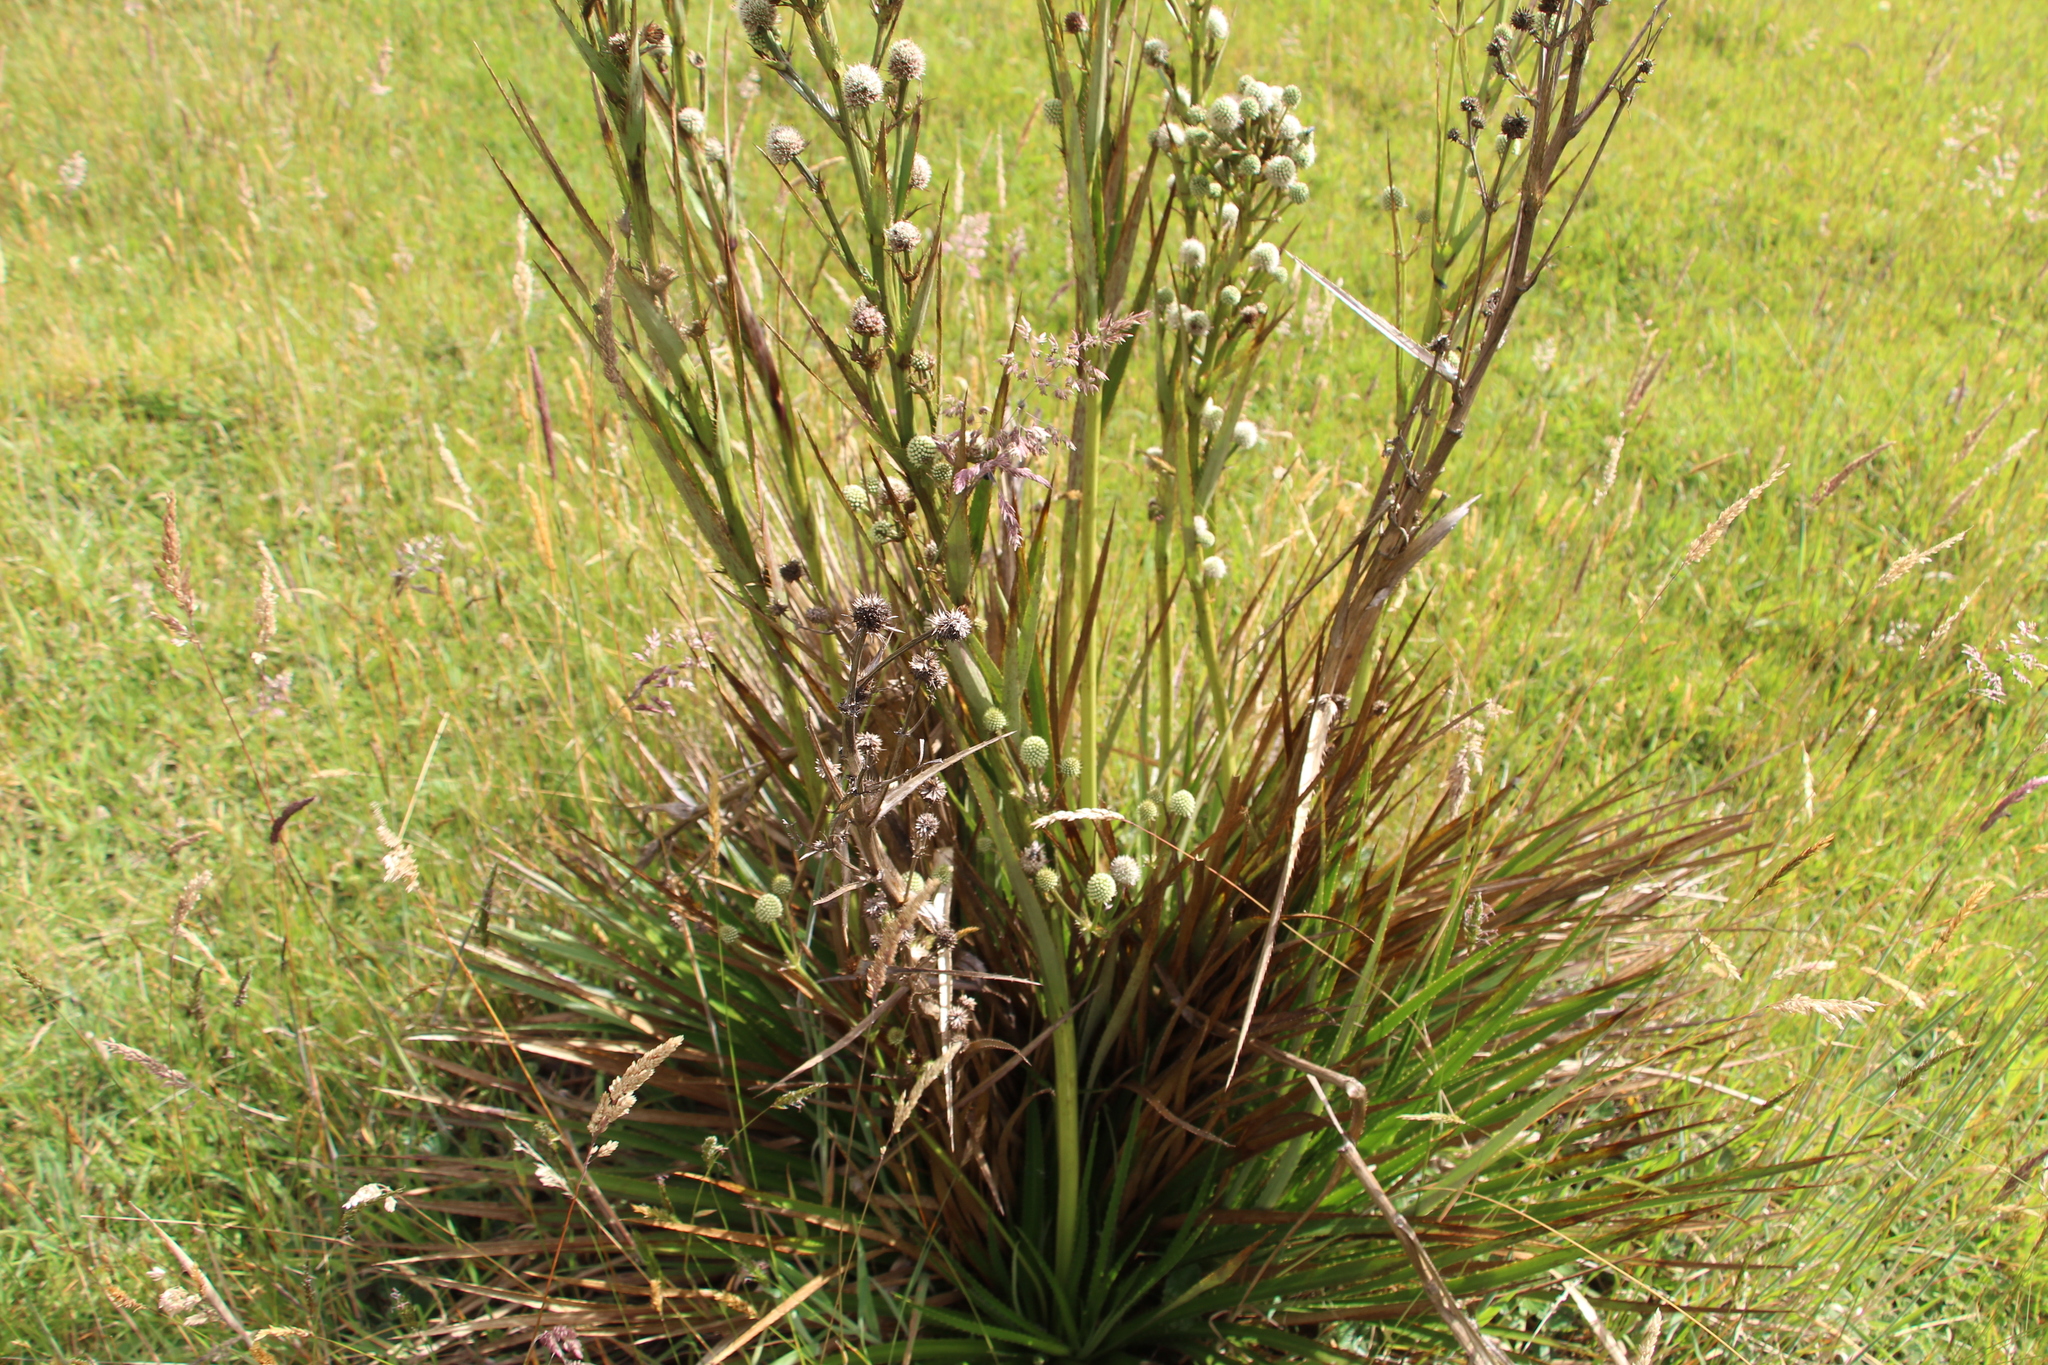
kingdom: Plantae
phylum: Tracheophyta
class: Magnoliopsida
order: Apiales
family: Apiaceae
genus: Eryngium
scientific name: Eryngium humboldtii
